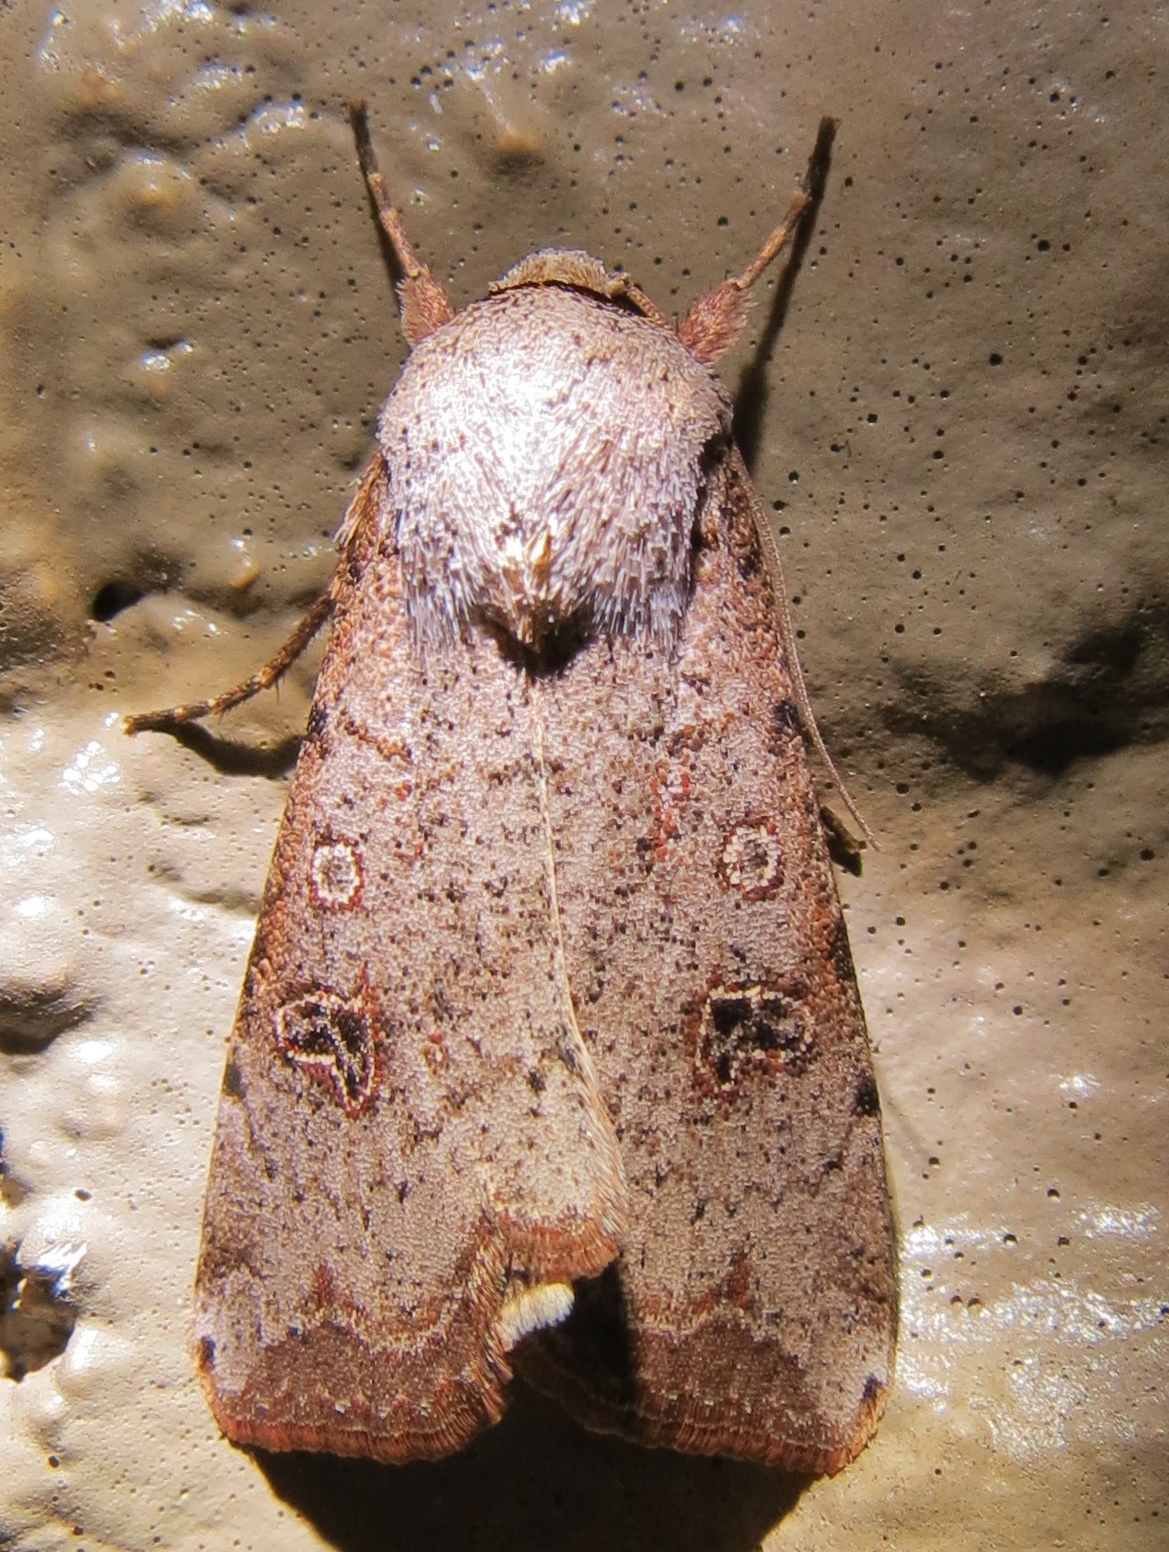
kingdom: Animalia
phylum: Arthropoda
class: Insecta
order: Lepidoptera
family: Noctuidae
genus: Anicla
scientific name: Anicla infecta
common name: Green cutworm
